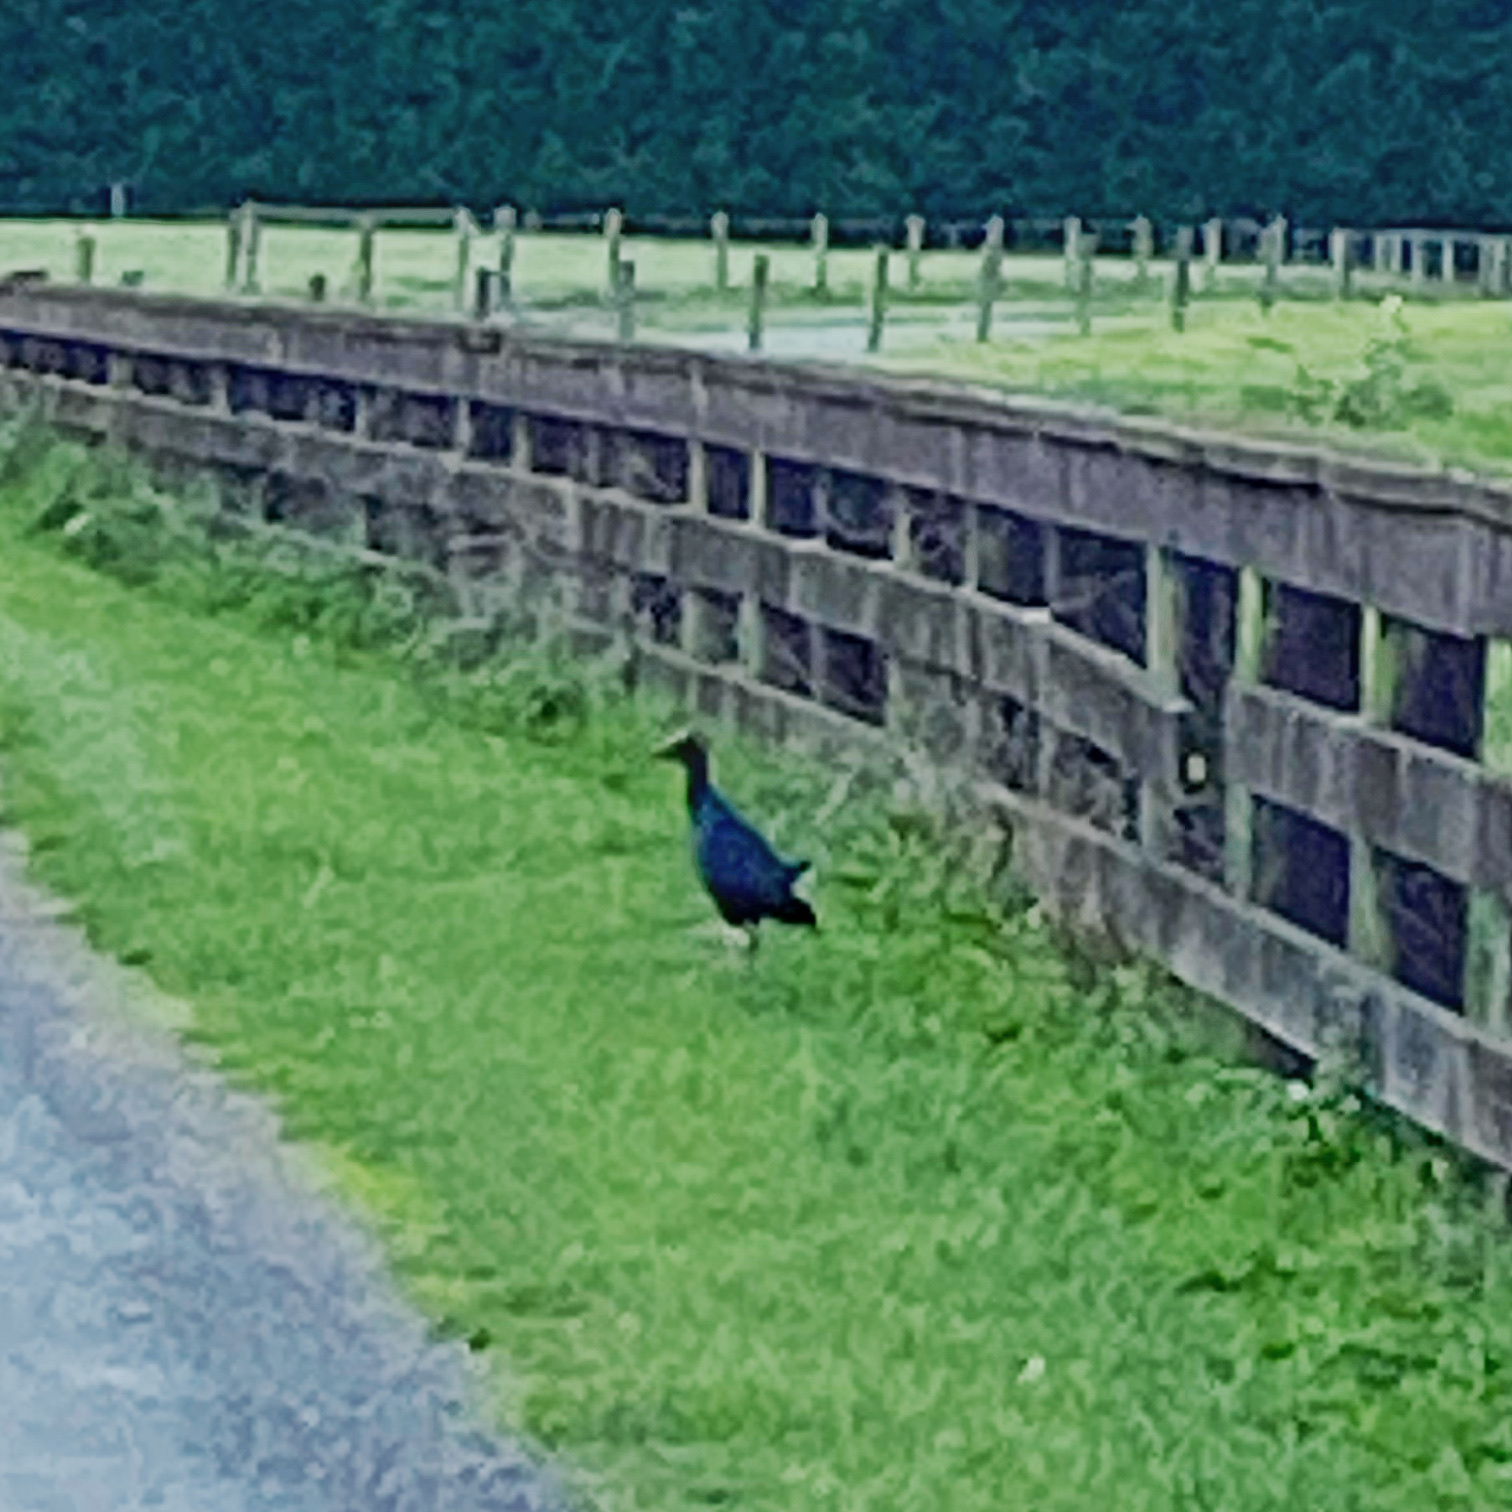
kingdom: Animalia
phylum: Chordata
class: Aves
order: Gruiformes
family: Rallidae
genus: Porphyrio
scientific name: Porphyrio melanotus
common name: Australasian swamphen
